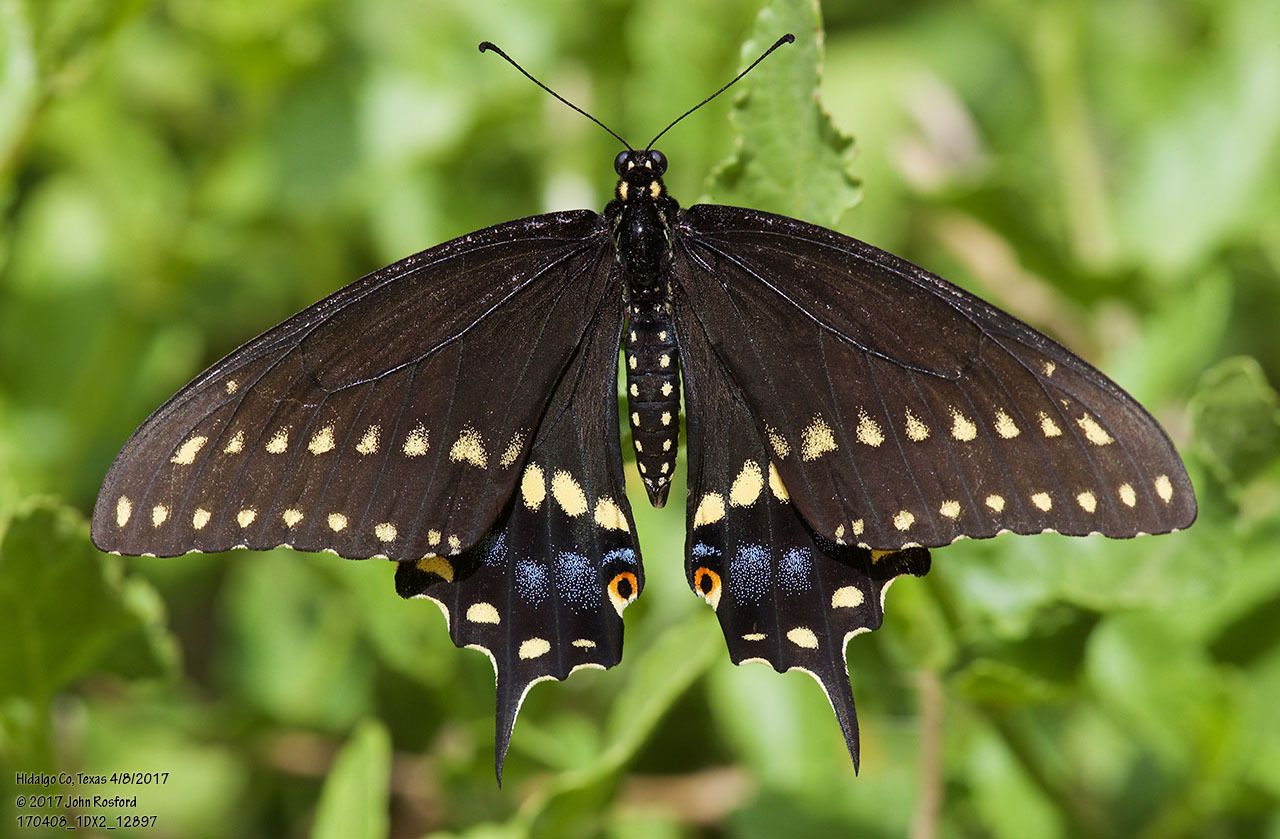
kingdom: Animalia
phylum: Arthropoda
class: Insecta
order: Lepidoptera
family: Papilionidae
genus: Papilio
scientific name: Papilio polyxenes
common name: Black swallowtail
